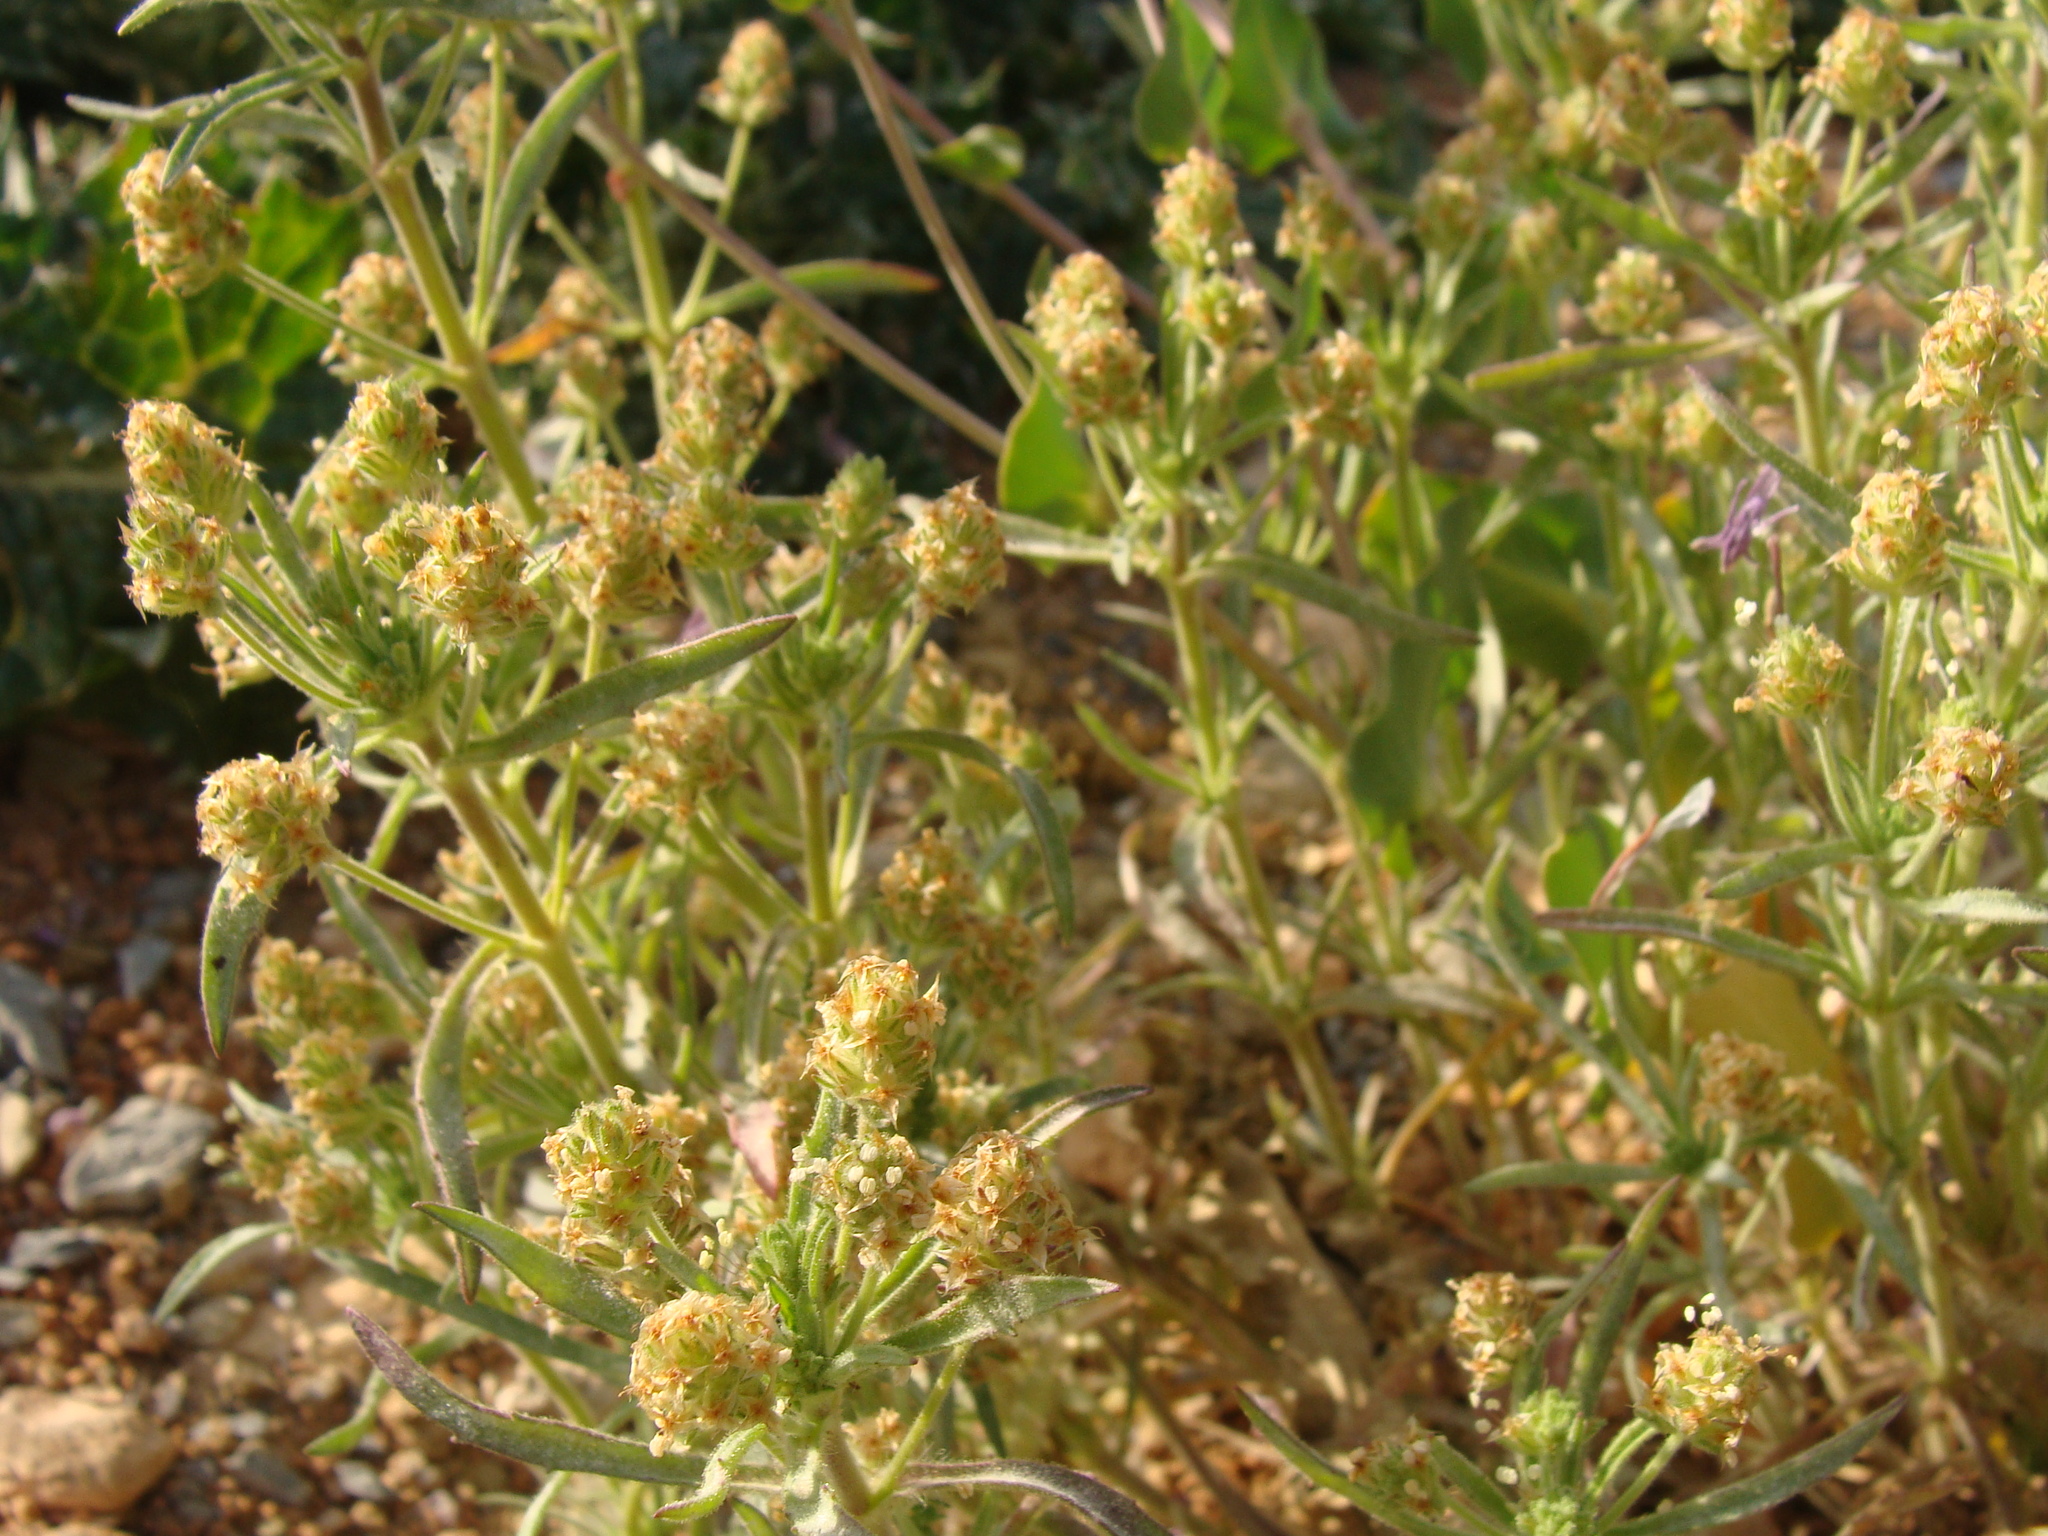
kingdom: Plantae
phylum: Tracheophyta
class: Magnoliopsida
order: Lamiales
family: Plantaginaceae
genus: Plantago
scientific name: Plantago afra
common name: Glandular plantain
